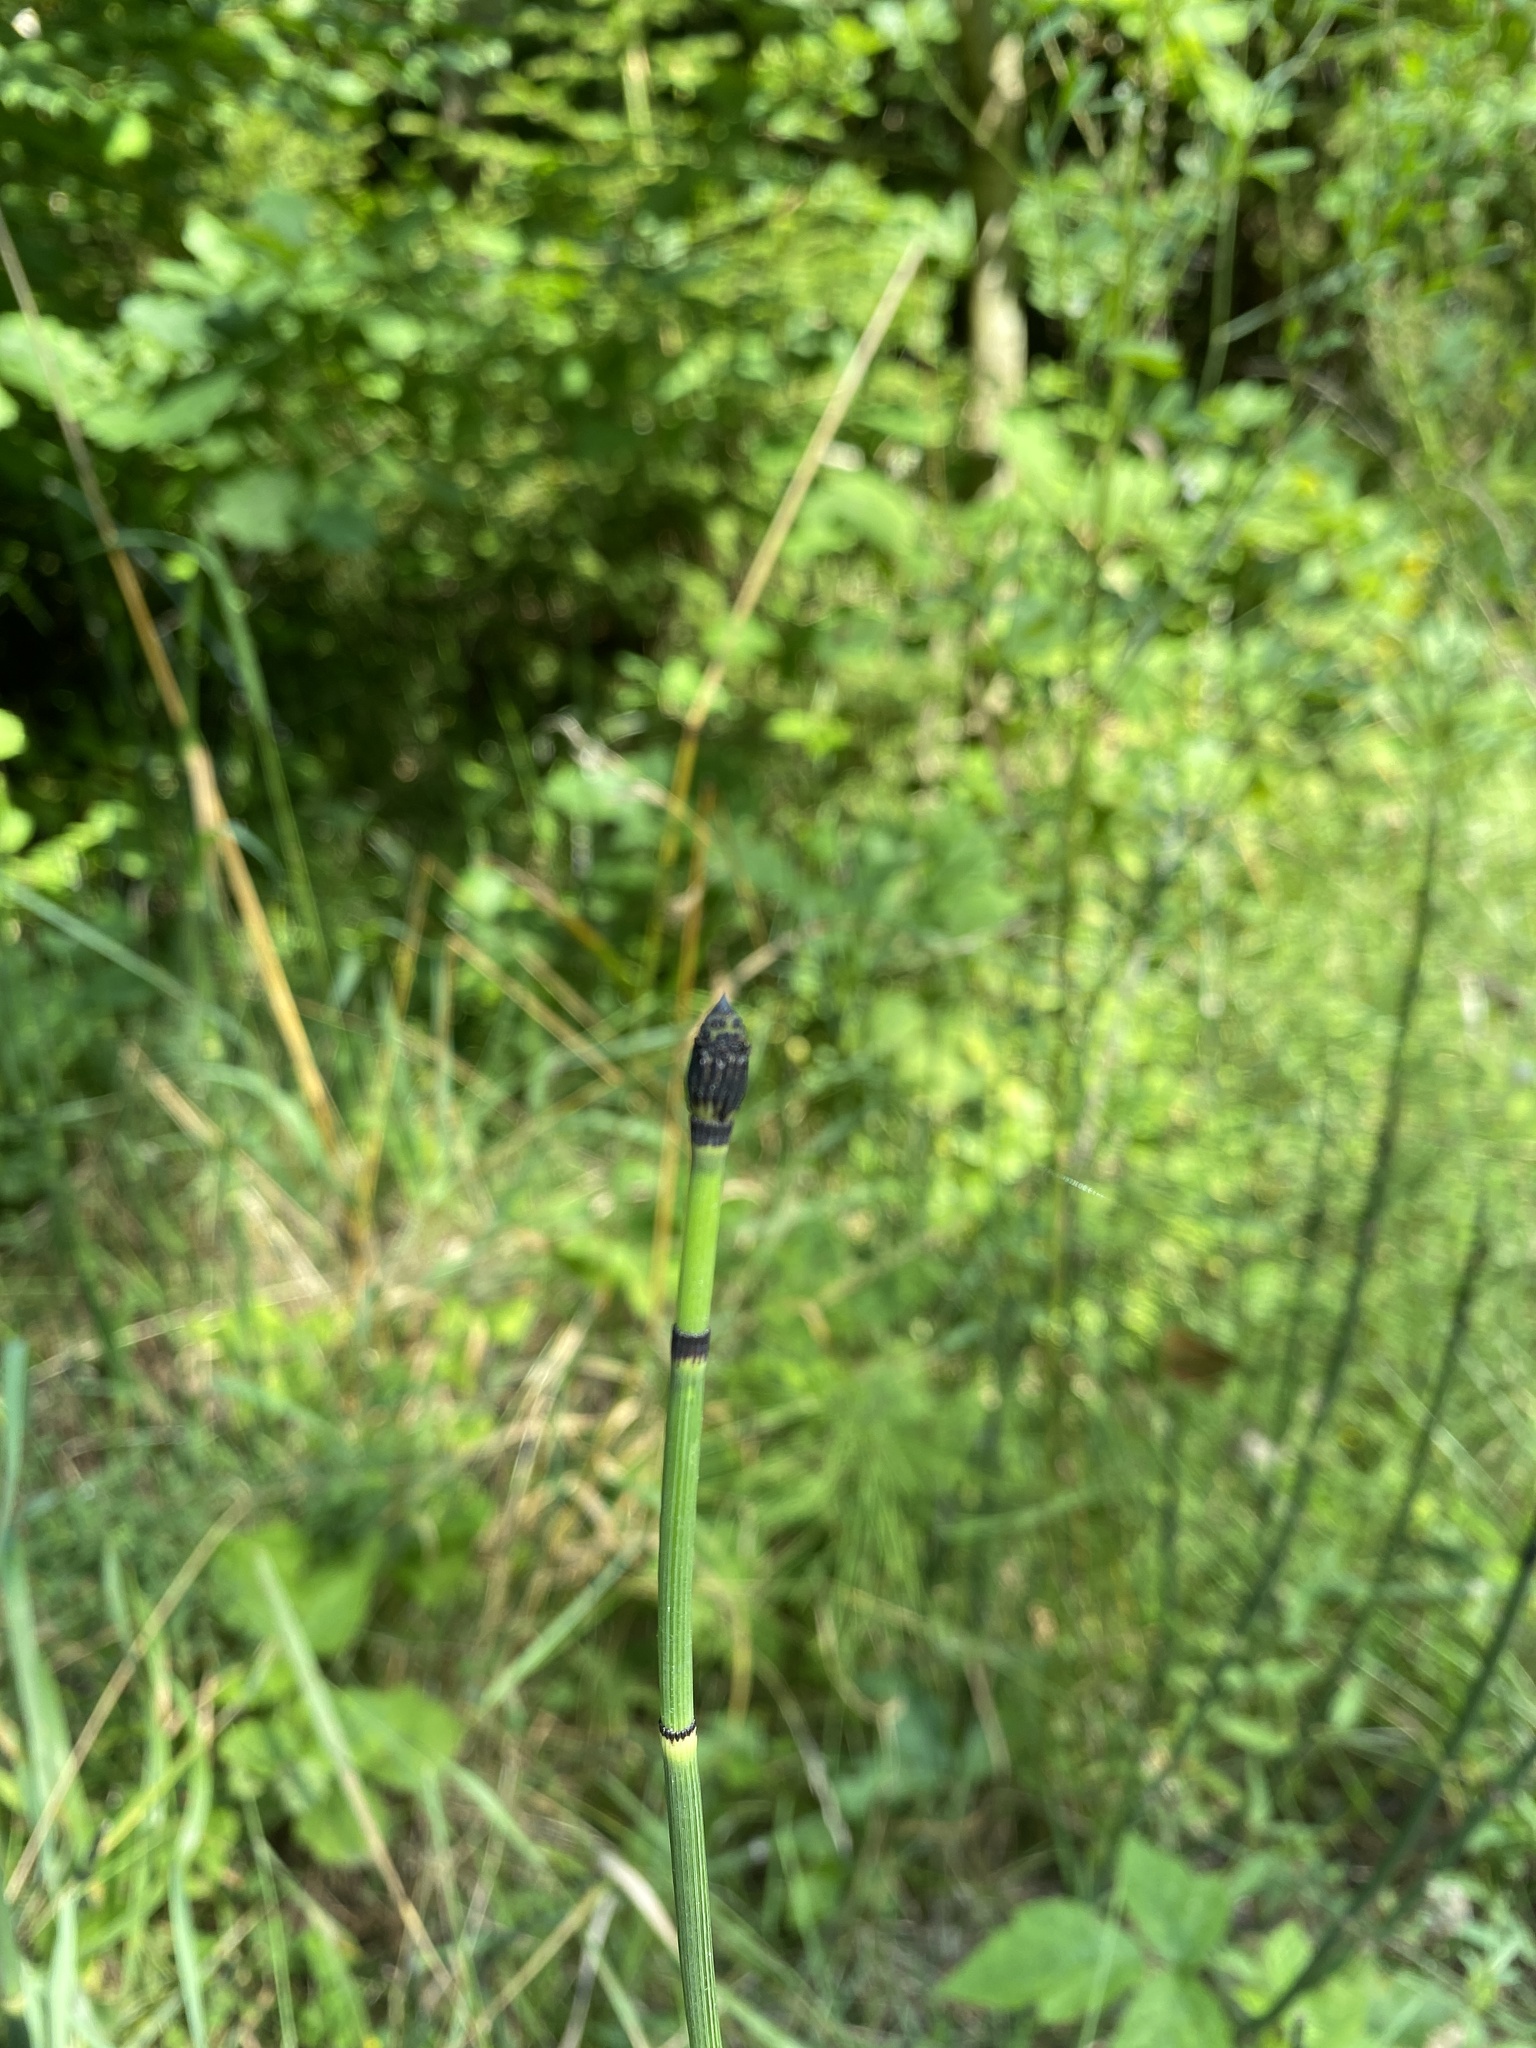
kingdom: Plantae
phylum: Tracheophyta
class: Polypodiopsida
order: Equisetales
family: Equisetaceae
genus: Equisetum
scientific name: Equisetum hyemale
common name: Rough horsetail
